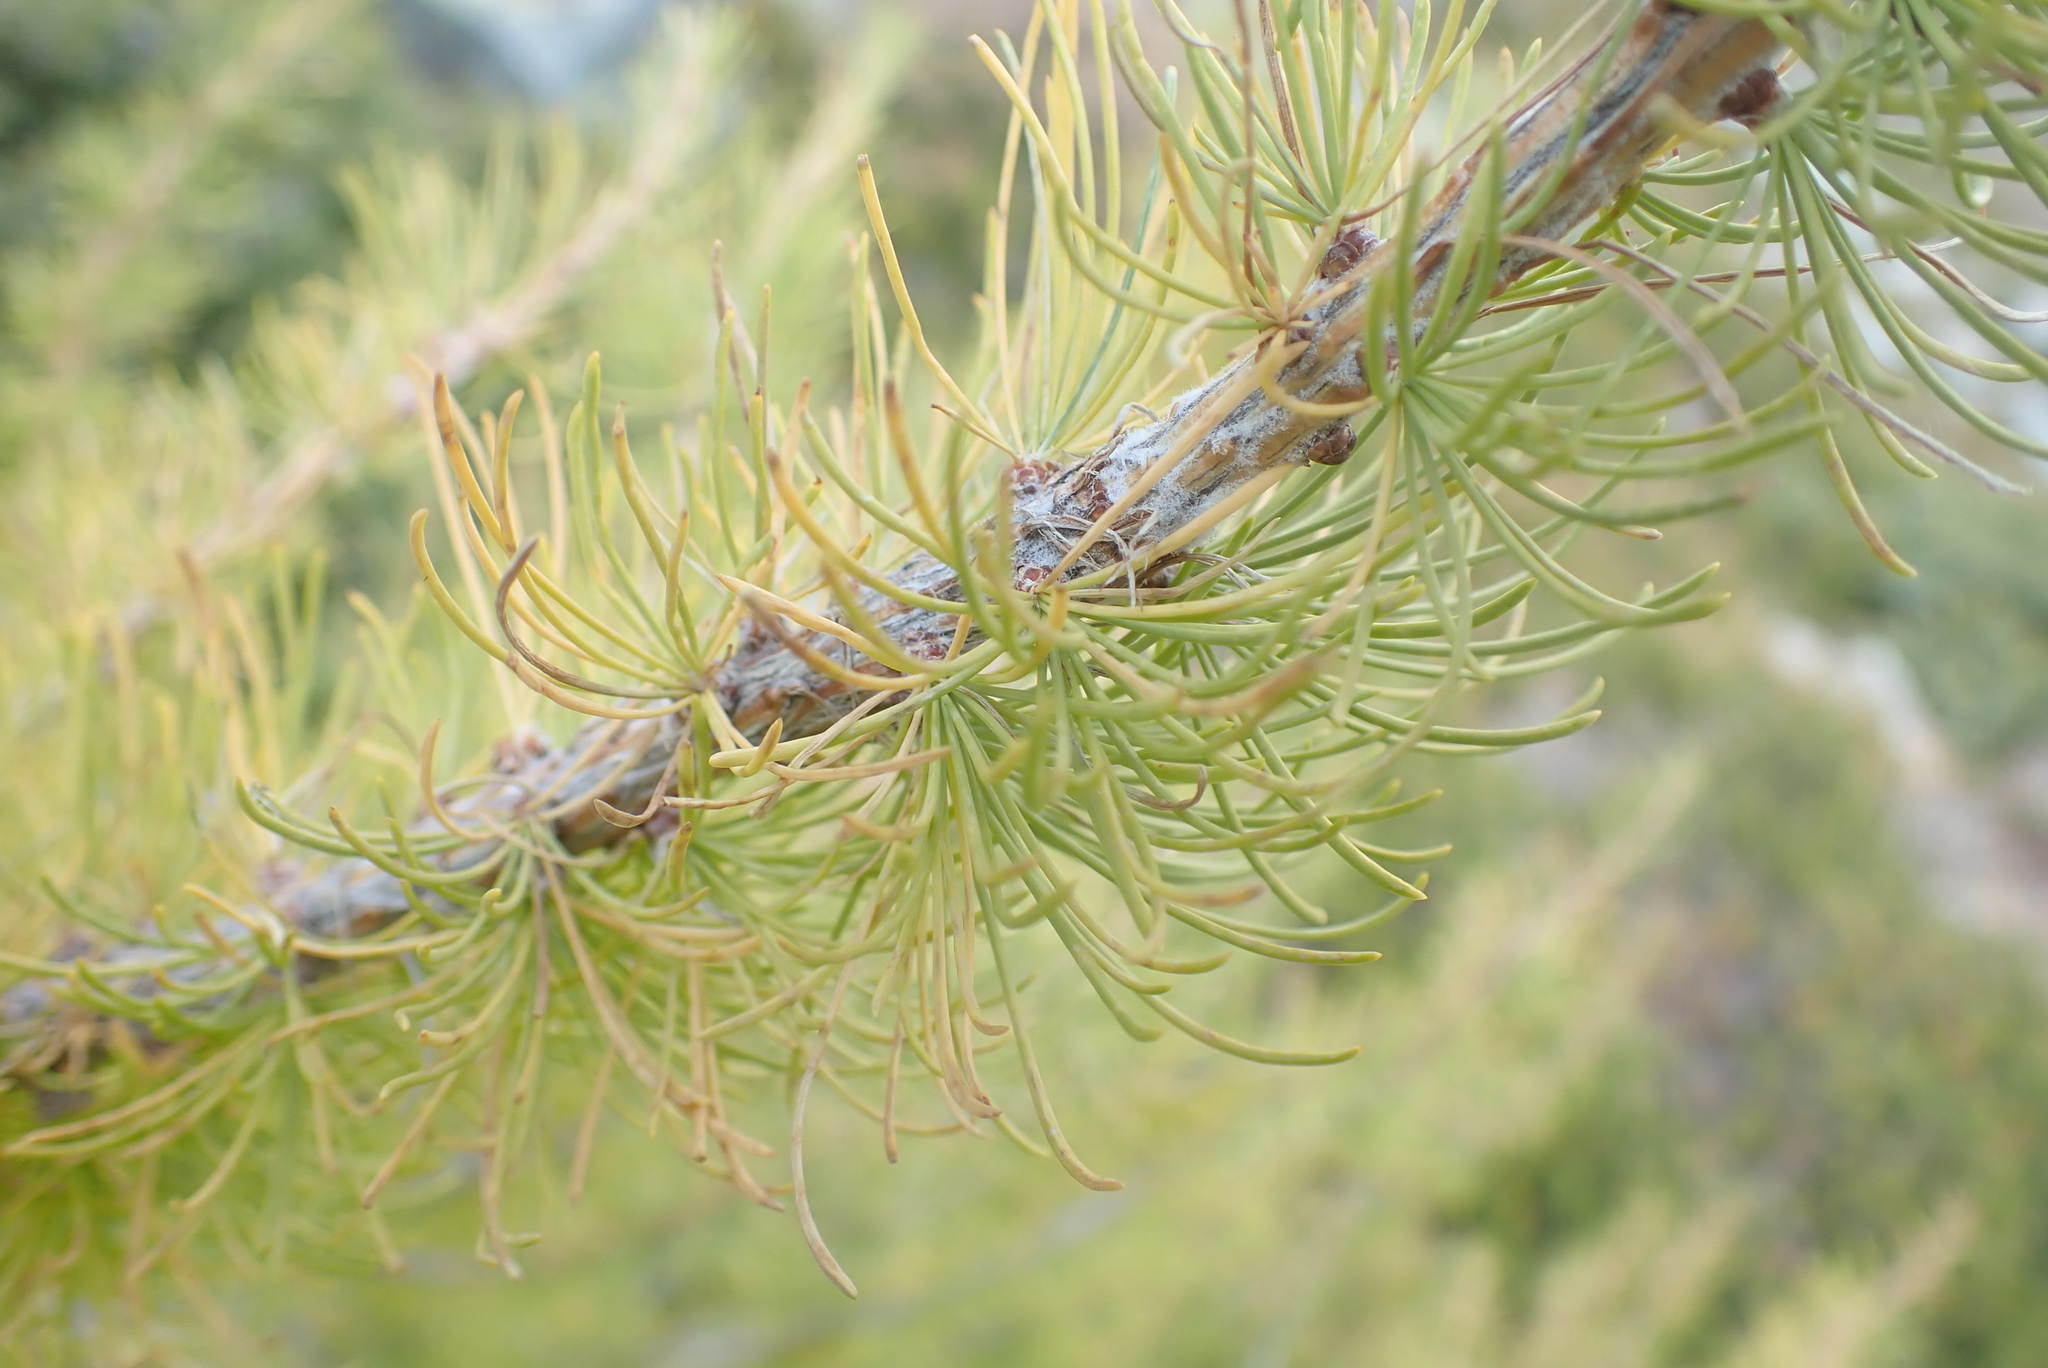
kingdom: Plantae
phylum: Tracheophyta
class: Pinopsida
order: Pinales
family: Pinaceae
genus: Larix
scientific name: Larix lyallii
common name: Alpine larch
